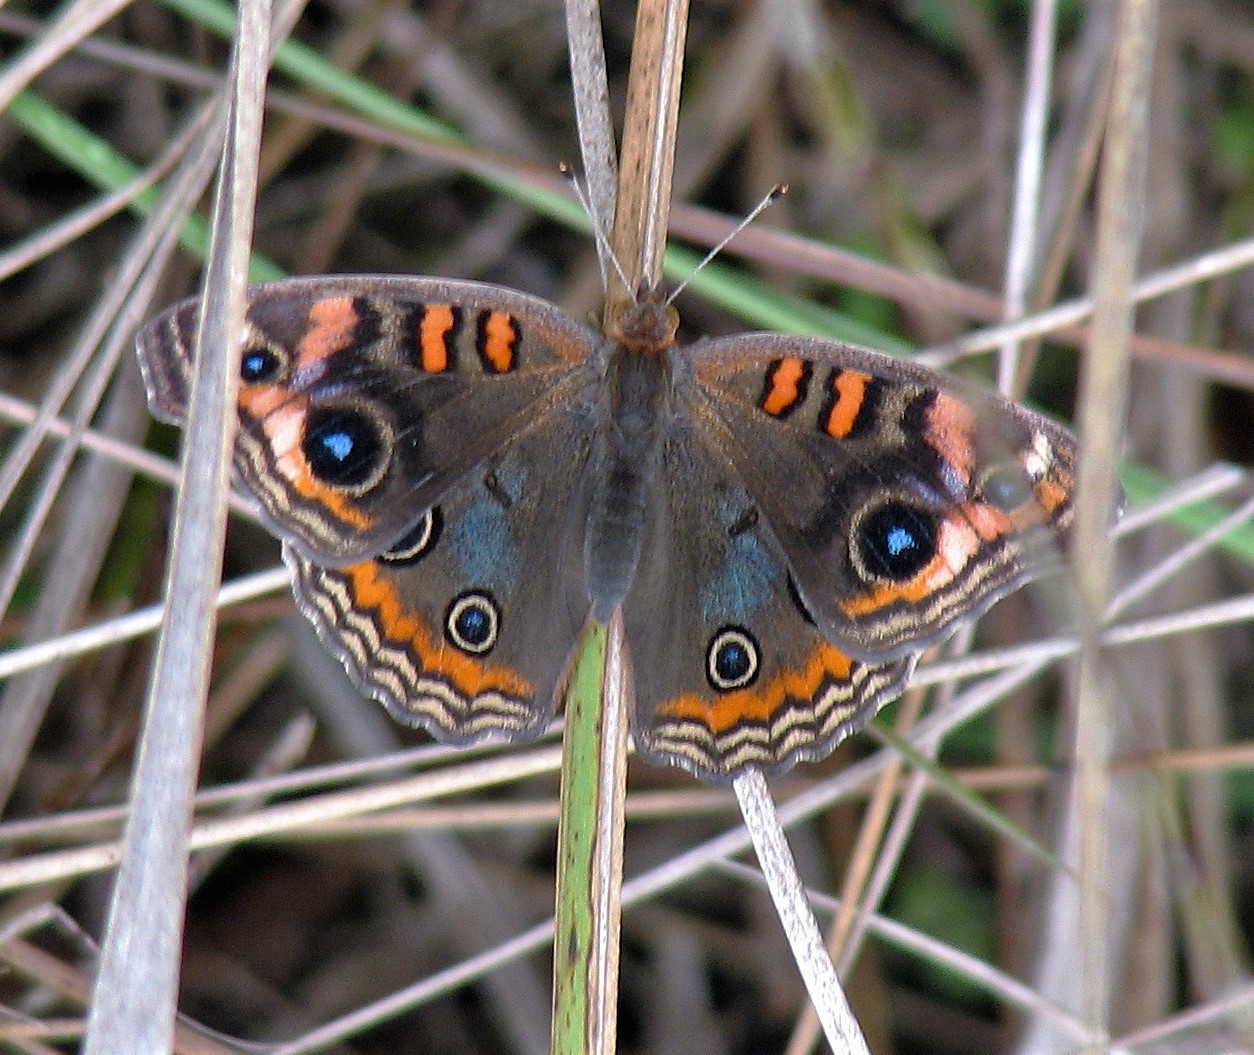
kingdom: Animalia
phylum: Arthropoda
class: Insecta
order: Lepidoptera
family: Nymphalidae
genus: Junonia
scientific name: Junonia lavinia
